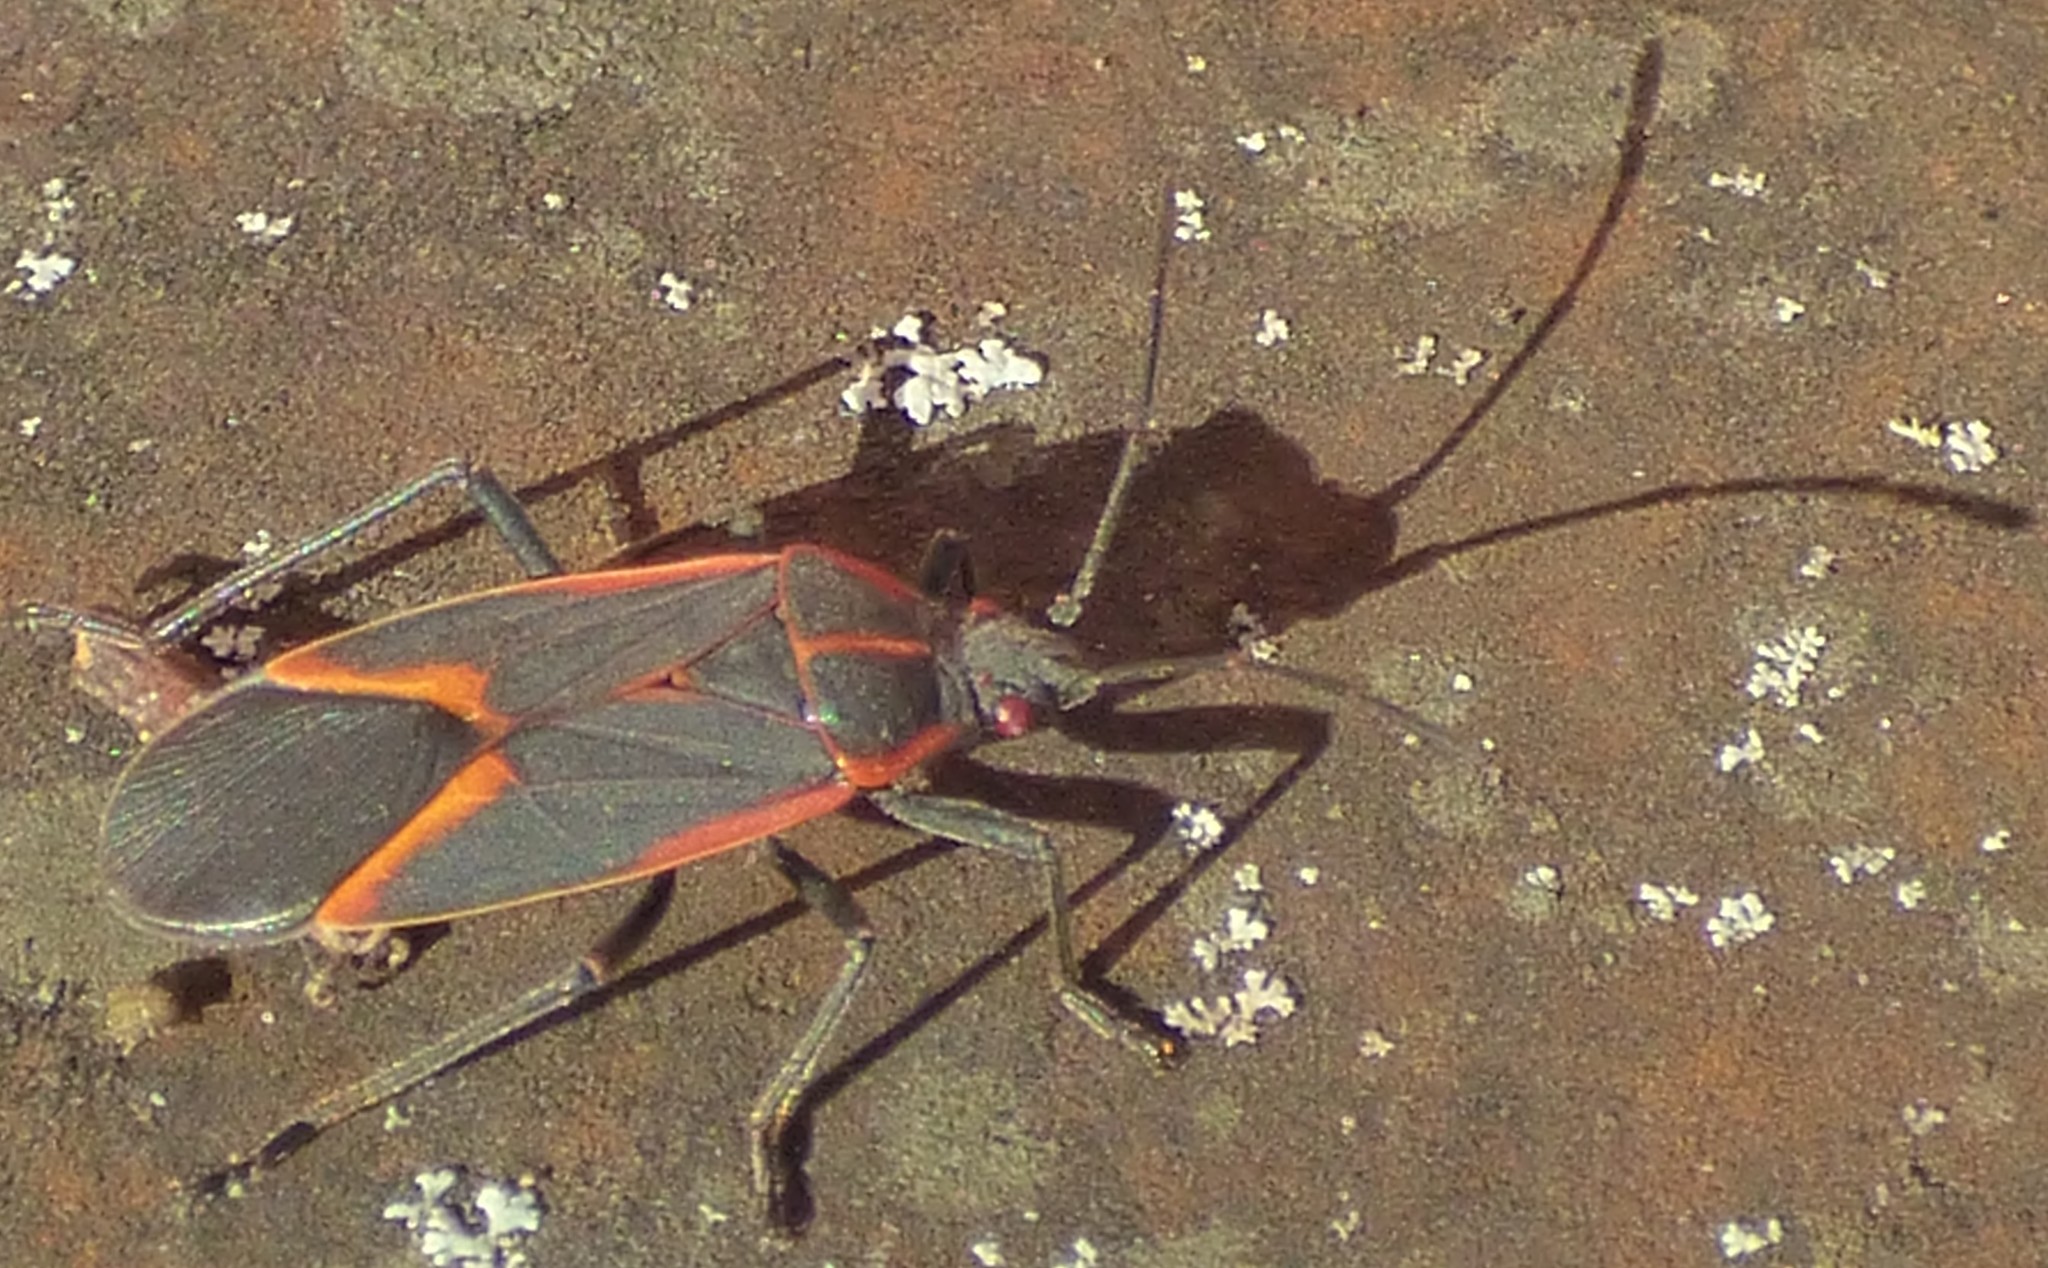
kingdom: Animalia
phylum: Arthropoda
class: Insecta
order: Hemiptera
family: Rhopalidae
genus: Boisea
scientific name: Boisea trivittata
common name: Boxelder bug
